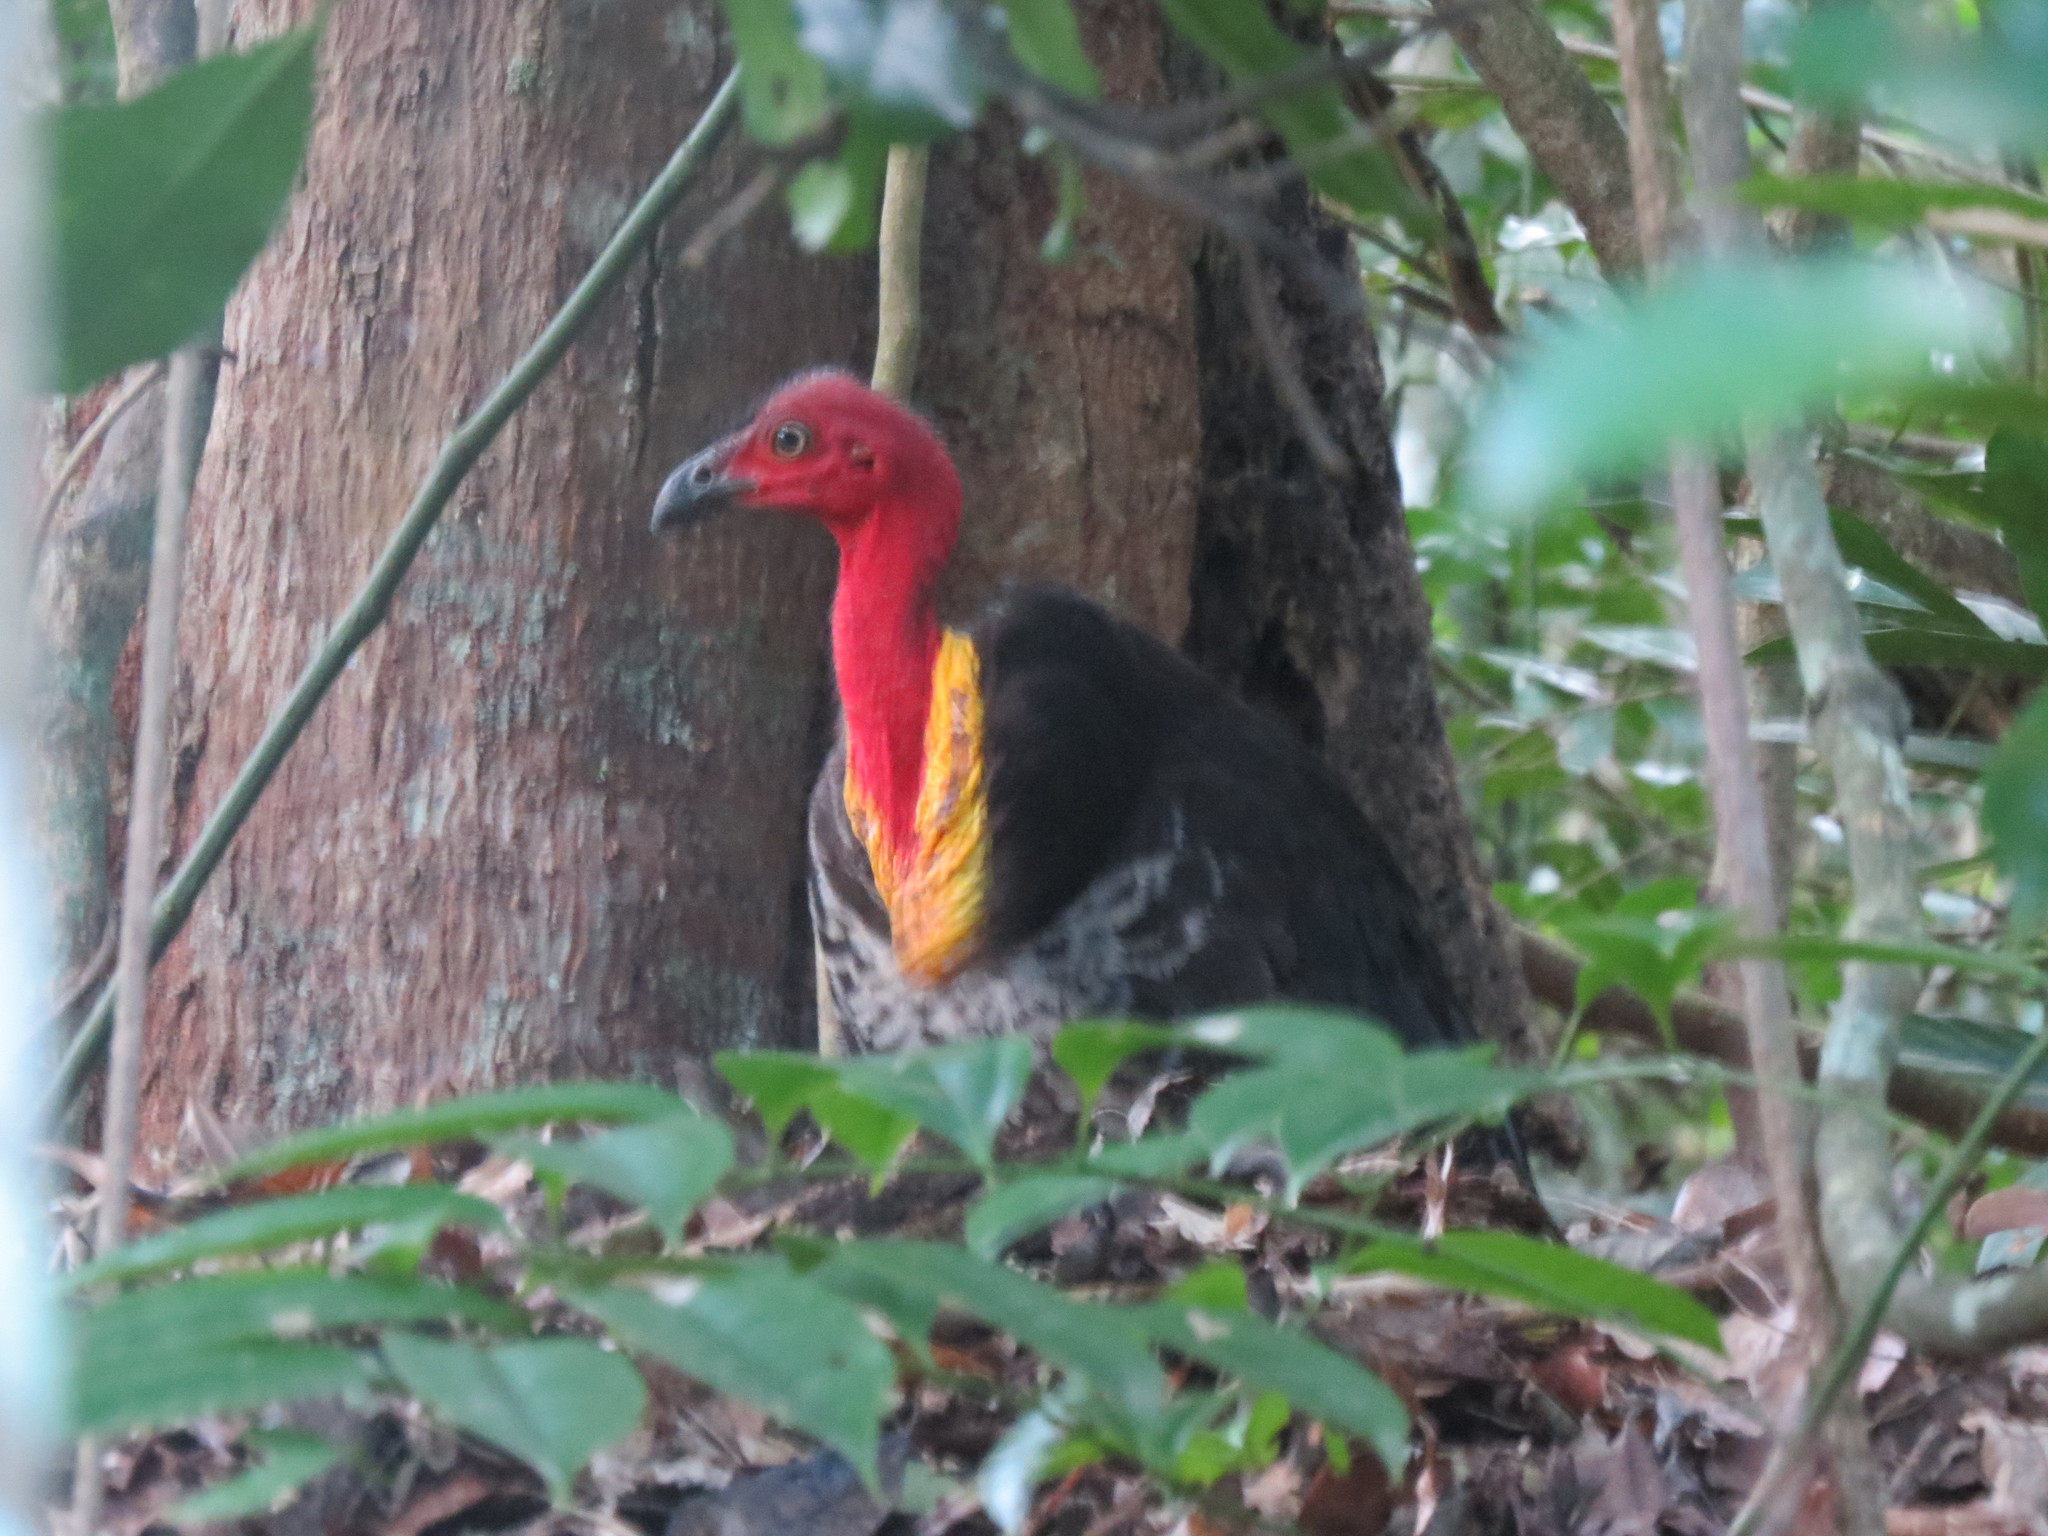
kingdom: Animalia
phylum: Chordata
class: Aves
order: Galliformes
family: Megapodiidae
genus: Alectura
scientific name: Alectura lathami
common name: Australian brushturkey
